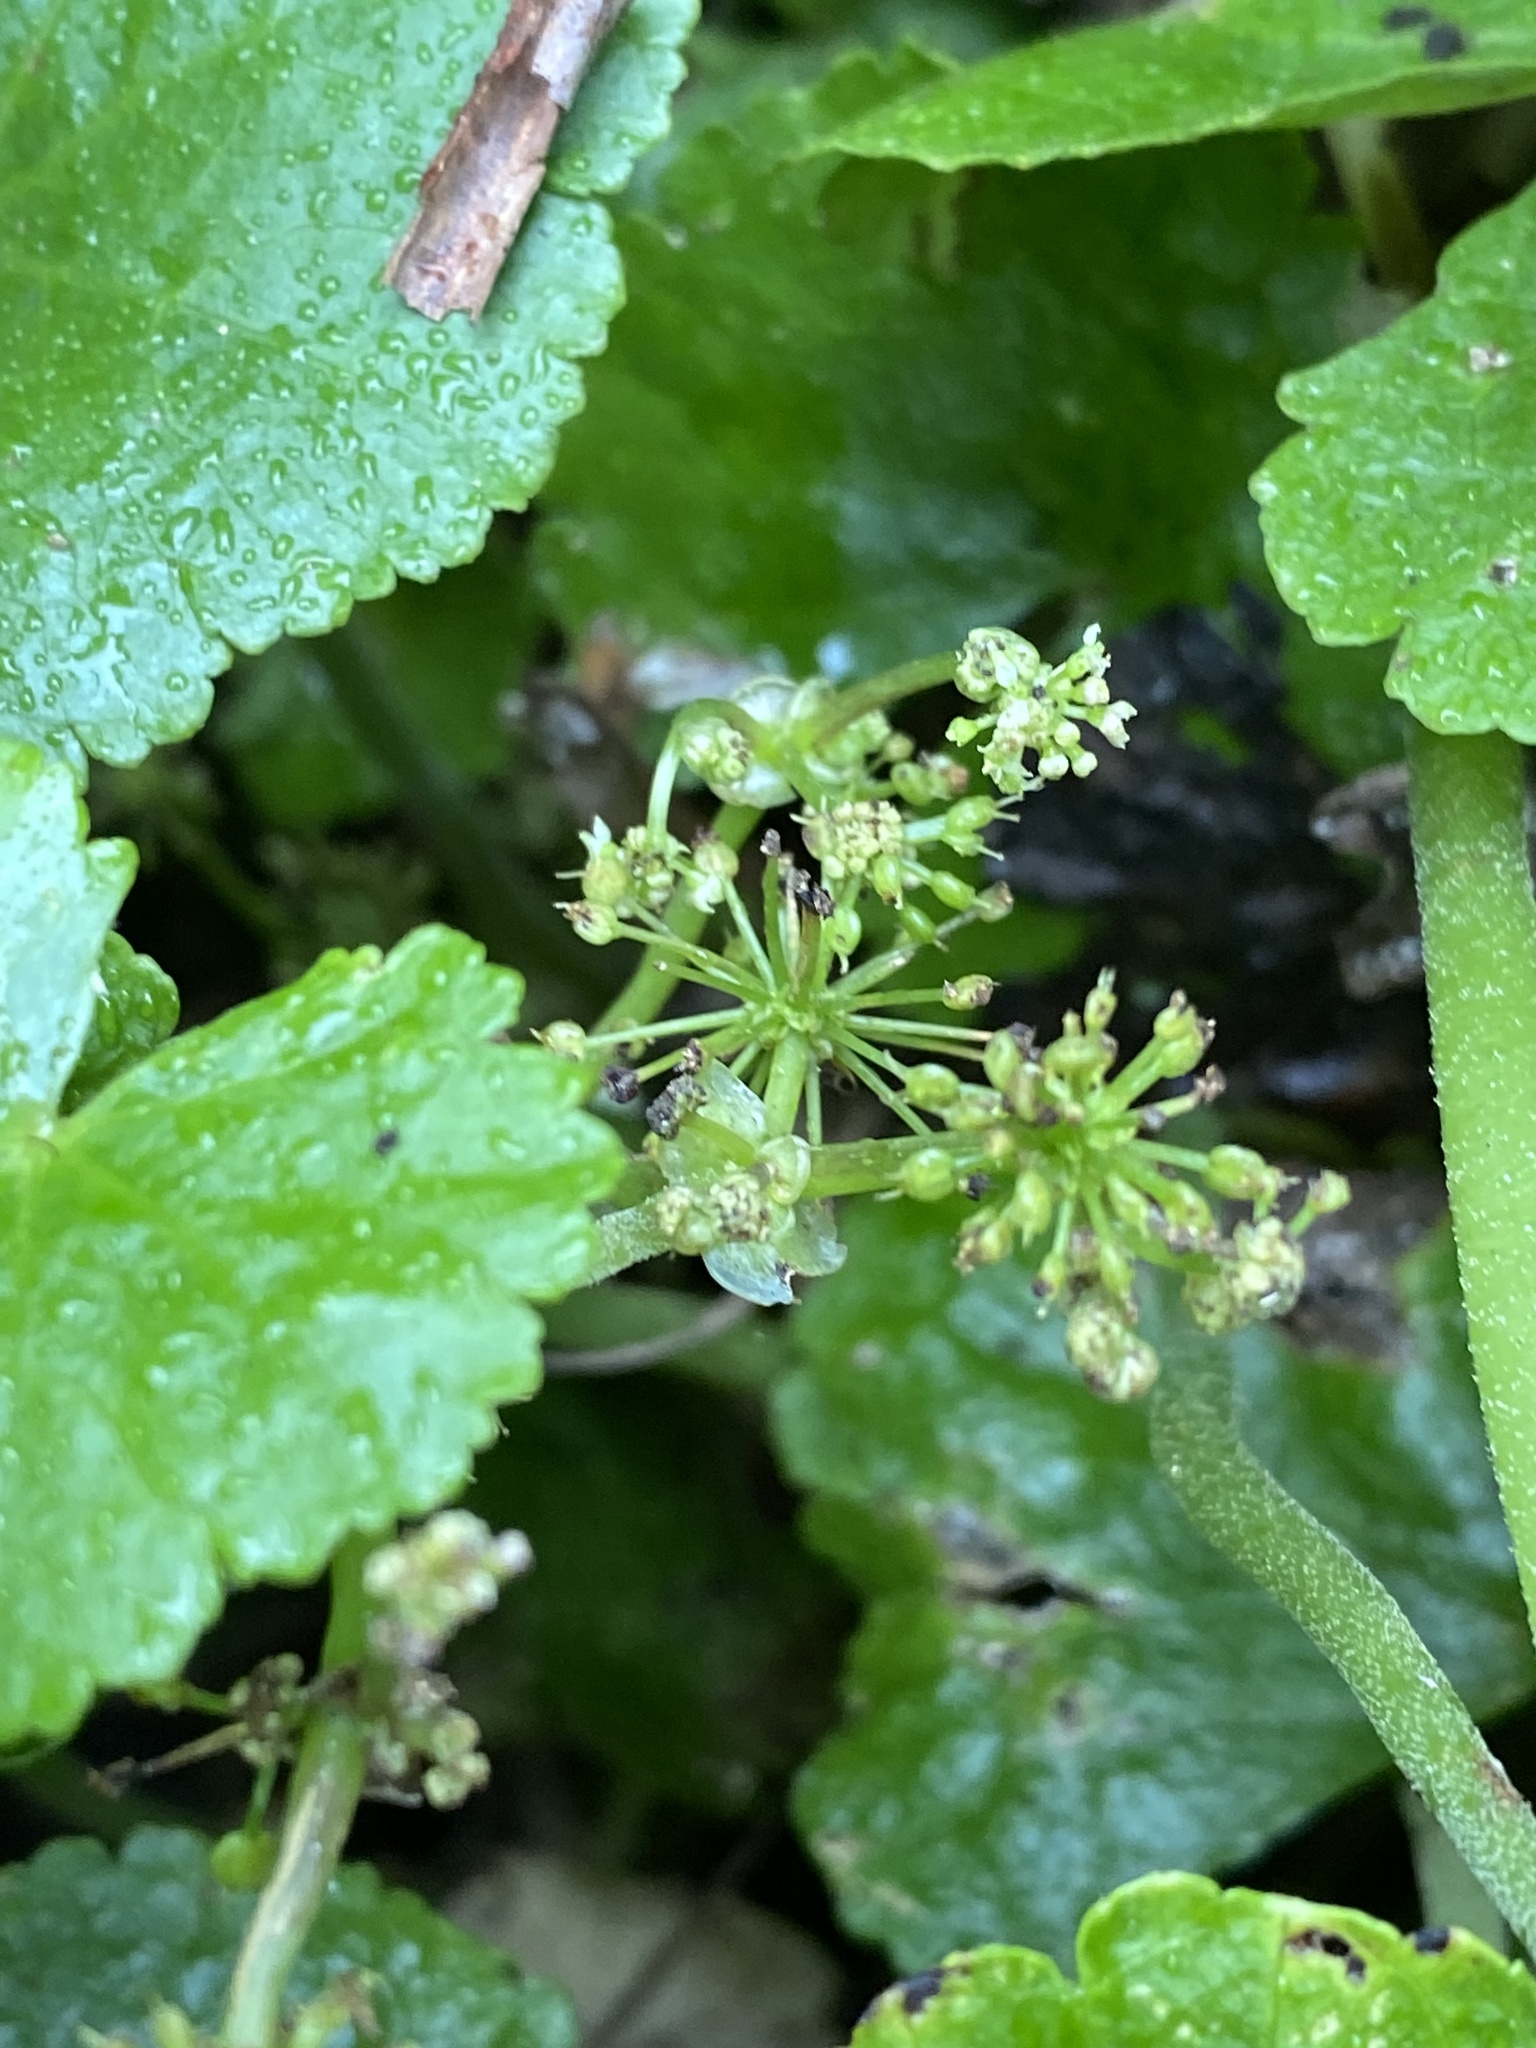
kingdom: Plantae
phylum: Tracheophyta
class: Magnoliopsida
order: Apiales
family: Araliaceae
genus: Hydrocotyle
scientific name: Hydrocotyle pedicellosa
